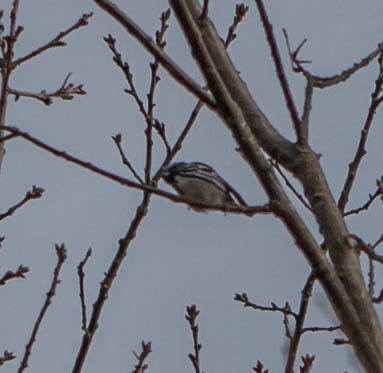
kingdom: Animalia
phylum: Chordata
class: Aves
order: Passeriformes
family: Parulidae
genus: Mniotilta
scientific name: Mniotilta varia
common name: Black-and-white warbler
